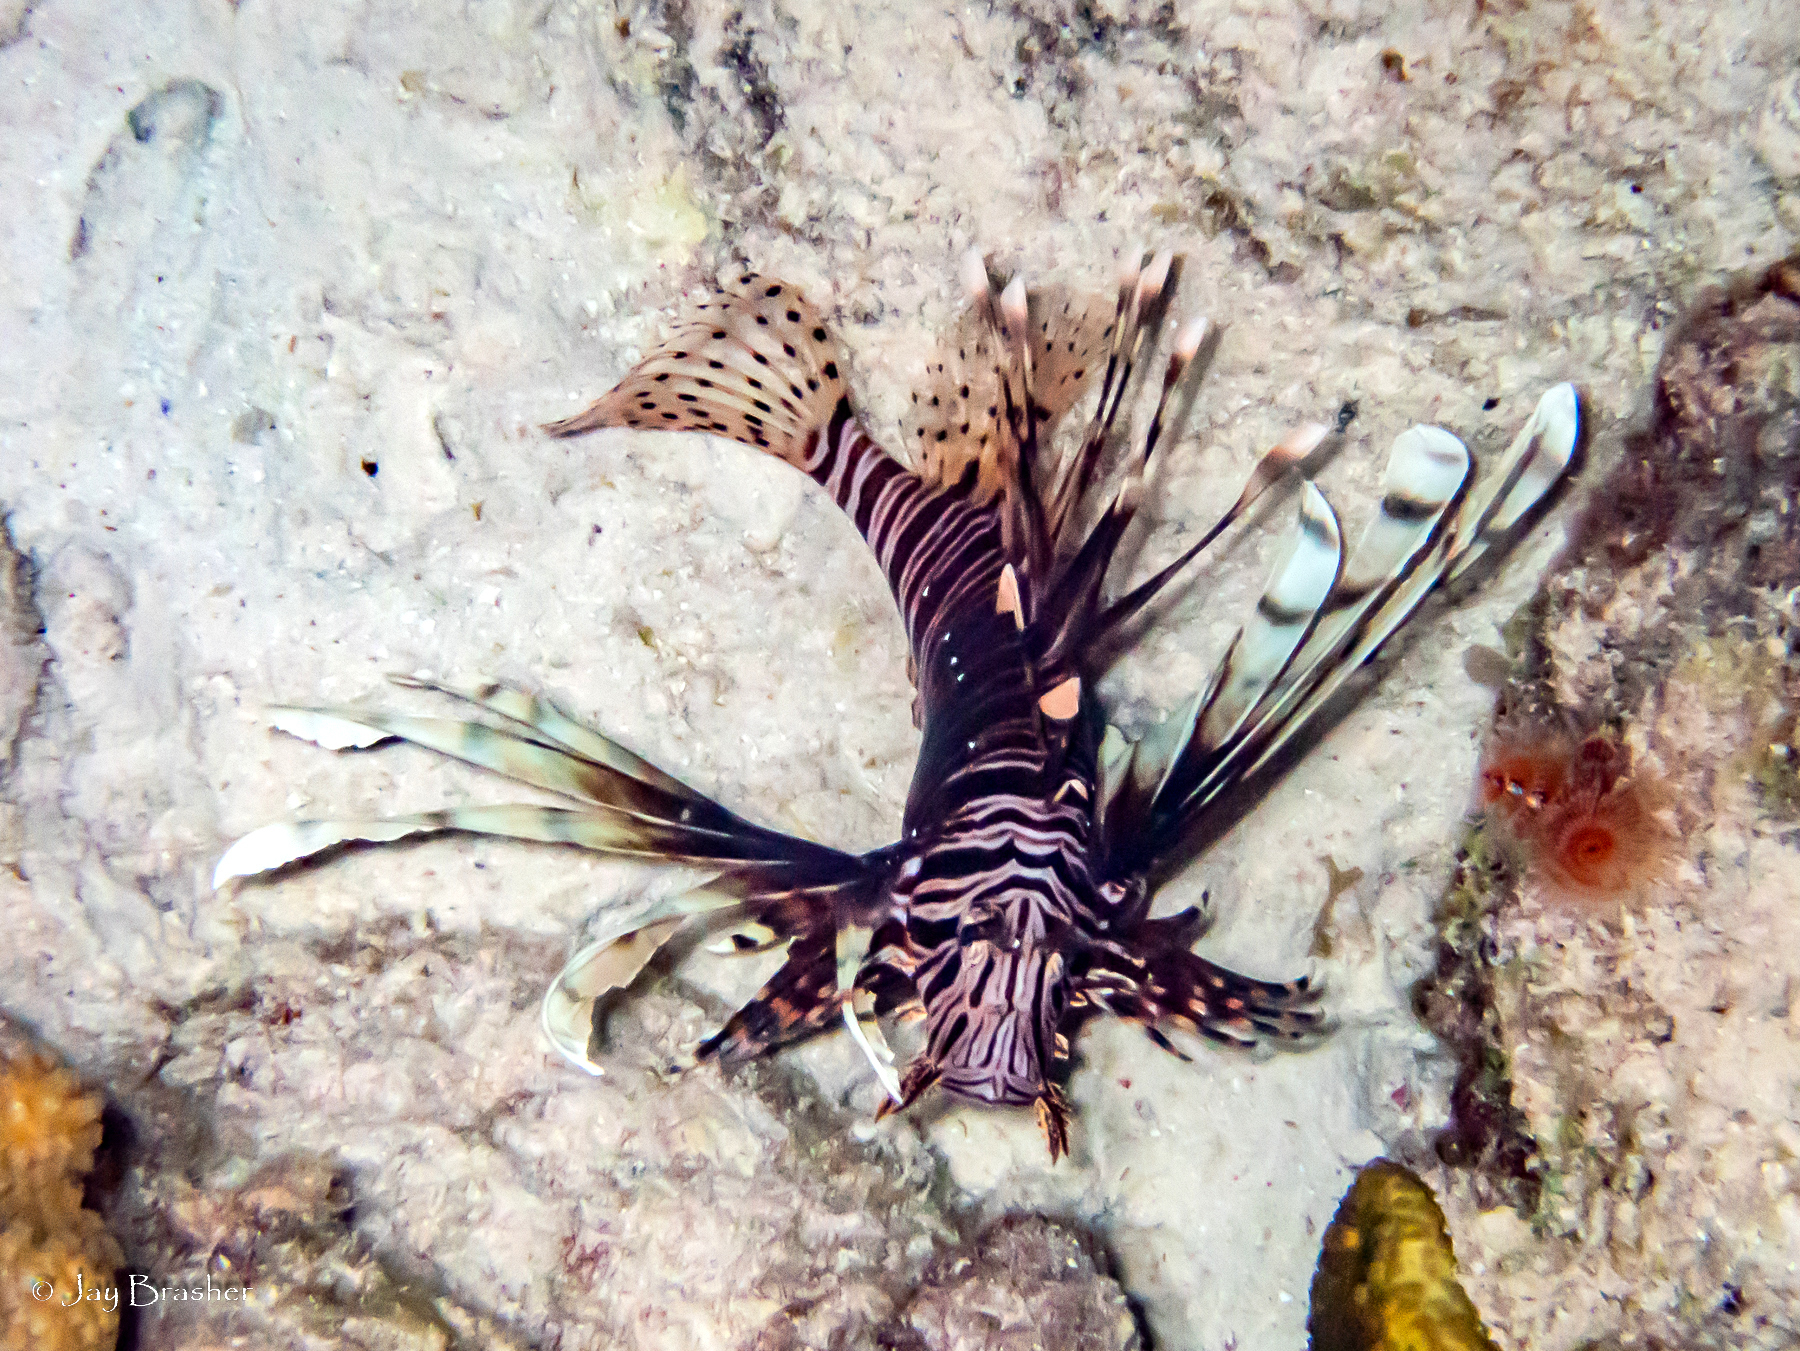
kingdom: Animalia
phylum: Chordata
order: Scorpaeniformes
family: Scorpaenidae
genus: Pterois
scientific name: Pterois volitans
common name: Lionfish
